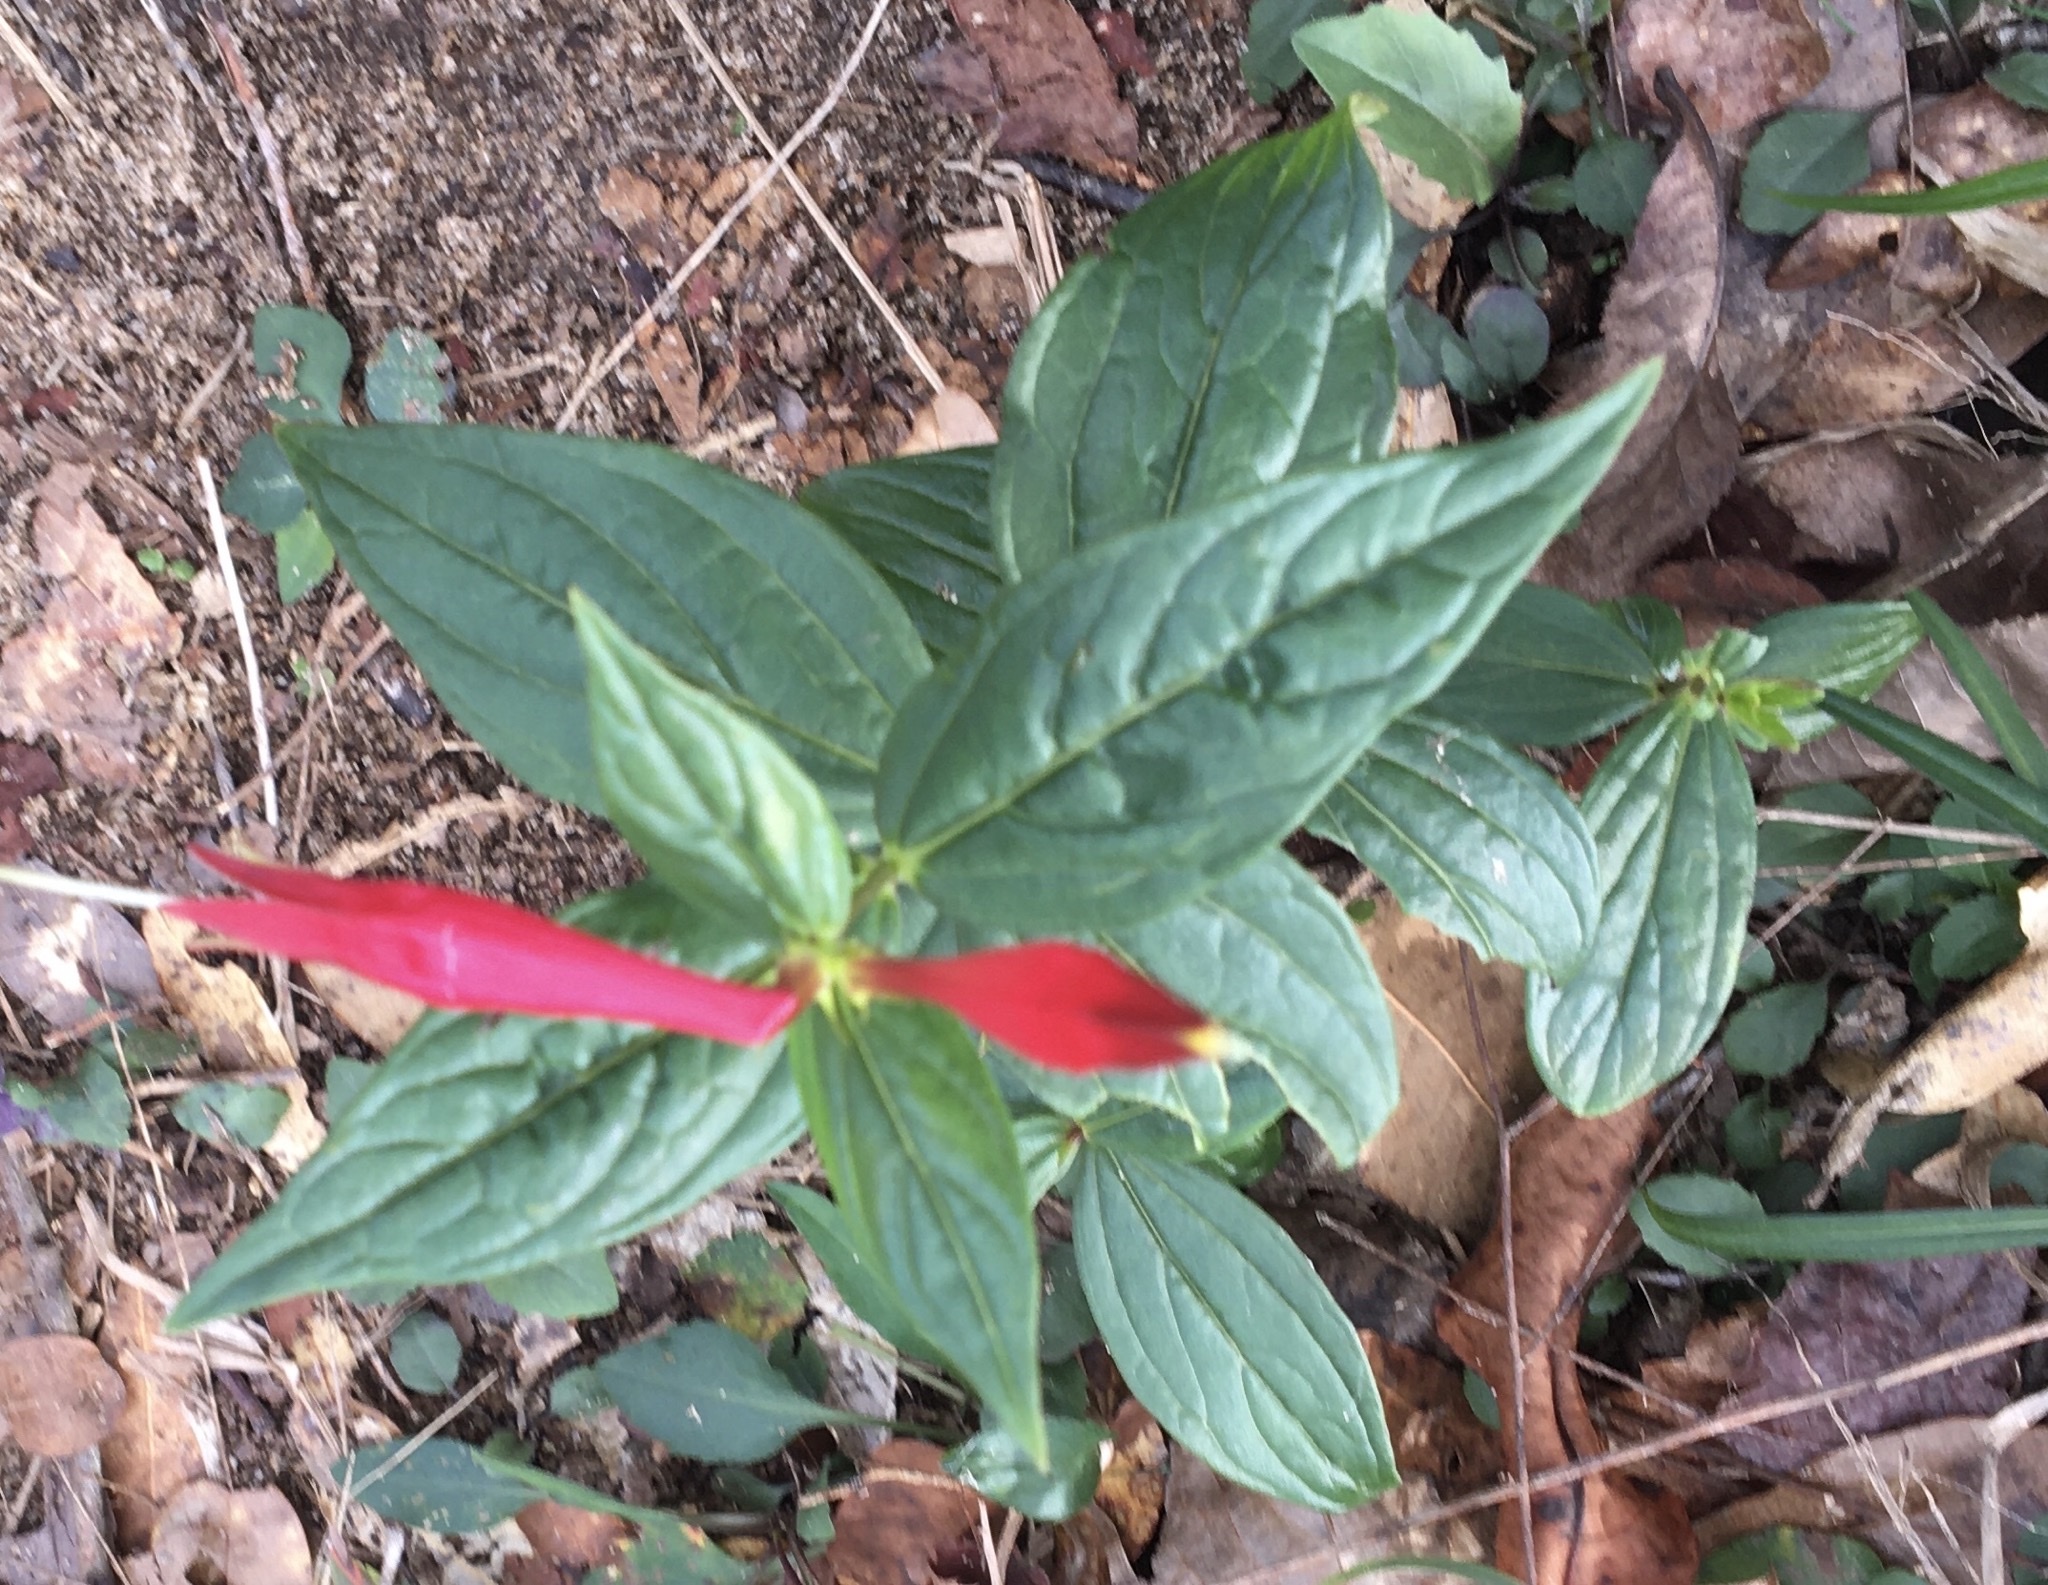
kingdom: Plantae
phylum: Tracheophyta
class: Magnoliopsida
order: Gentianales
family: Loganiaceae
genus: Spigelia
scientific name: Spigelia marilandica
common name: Indian-pink
